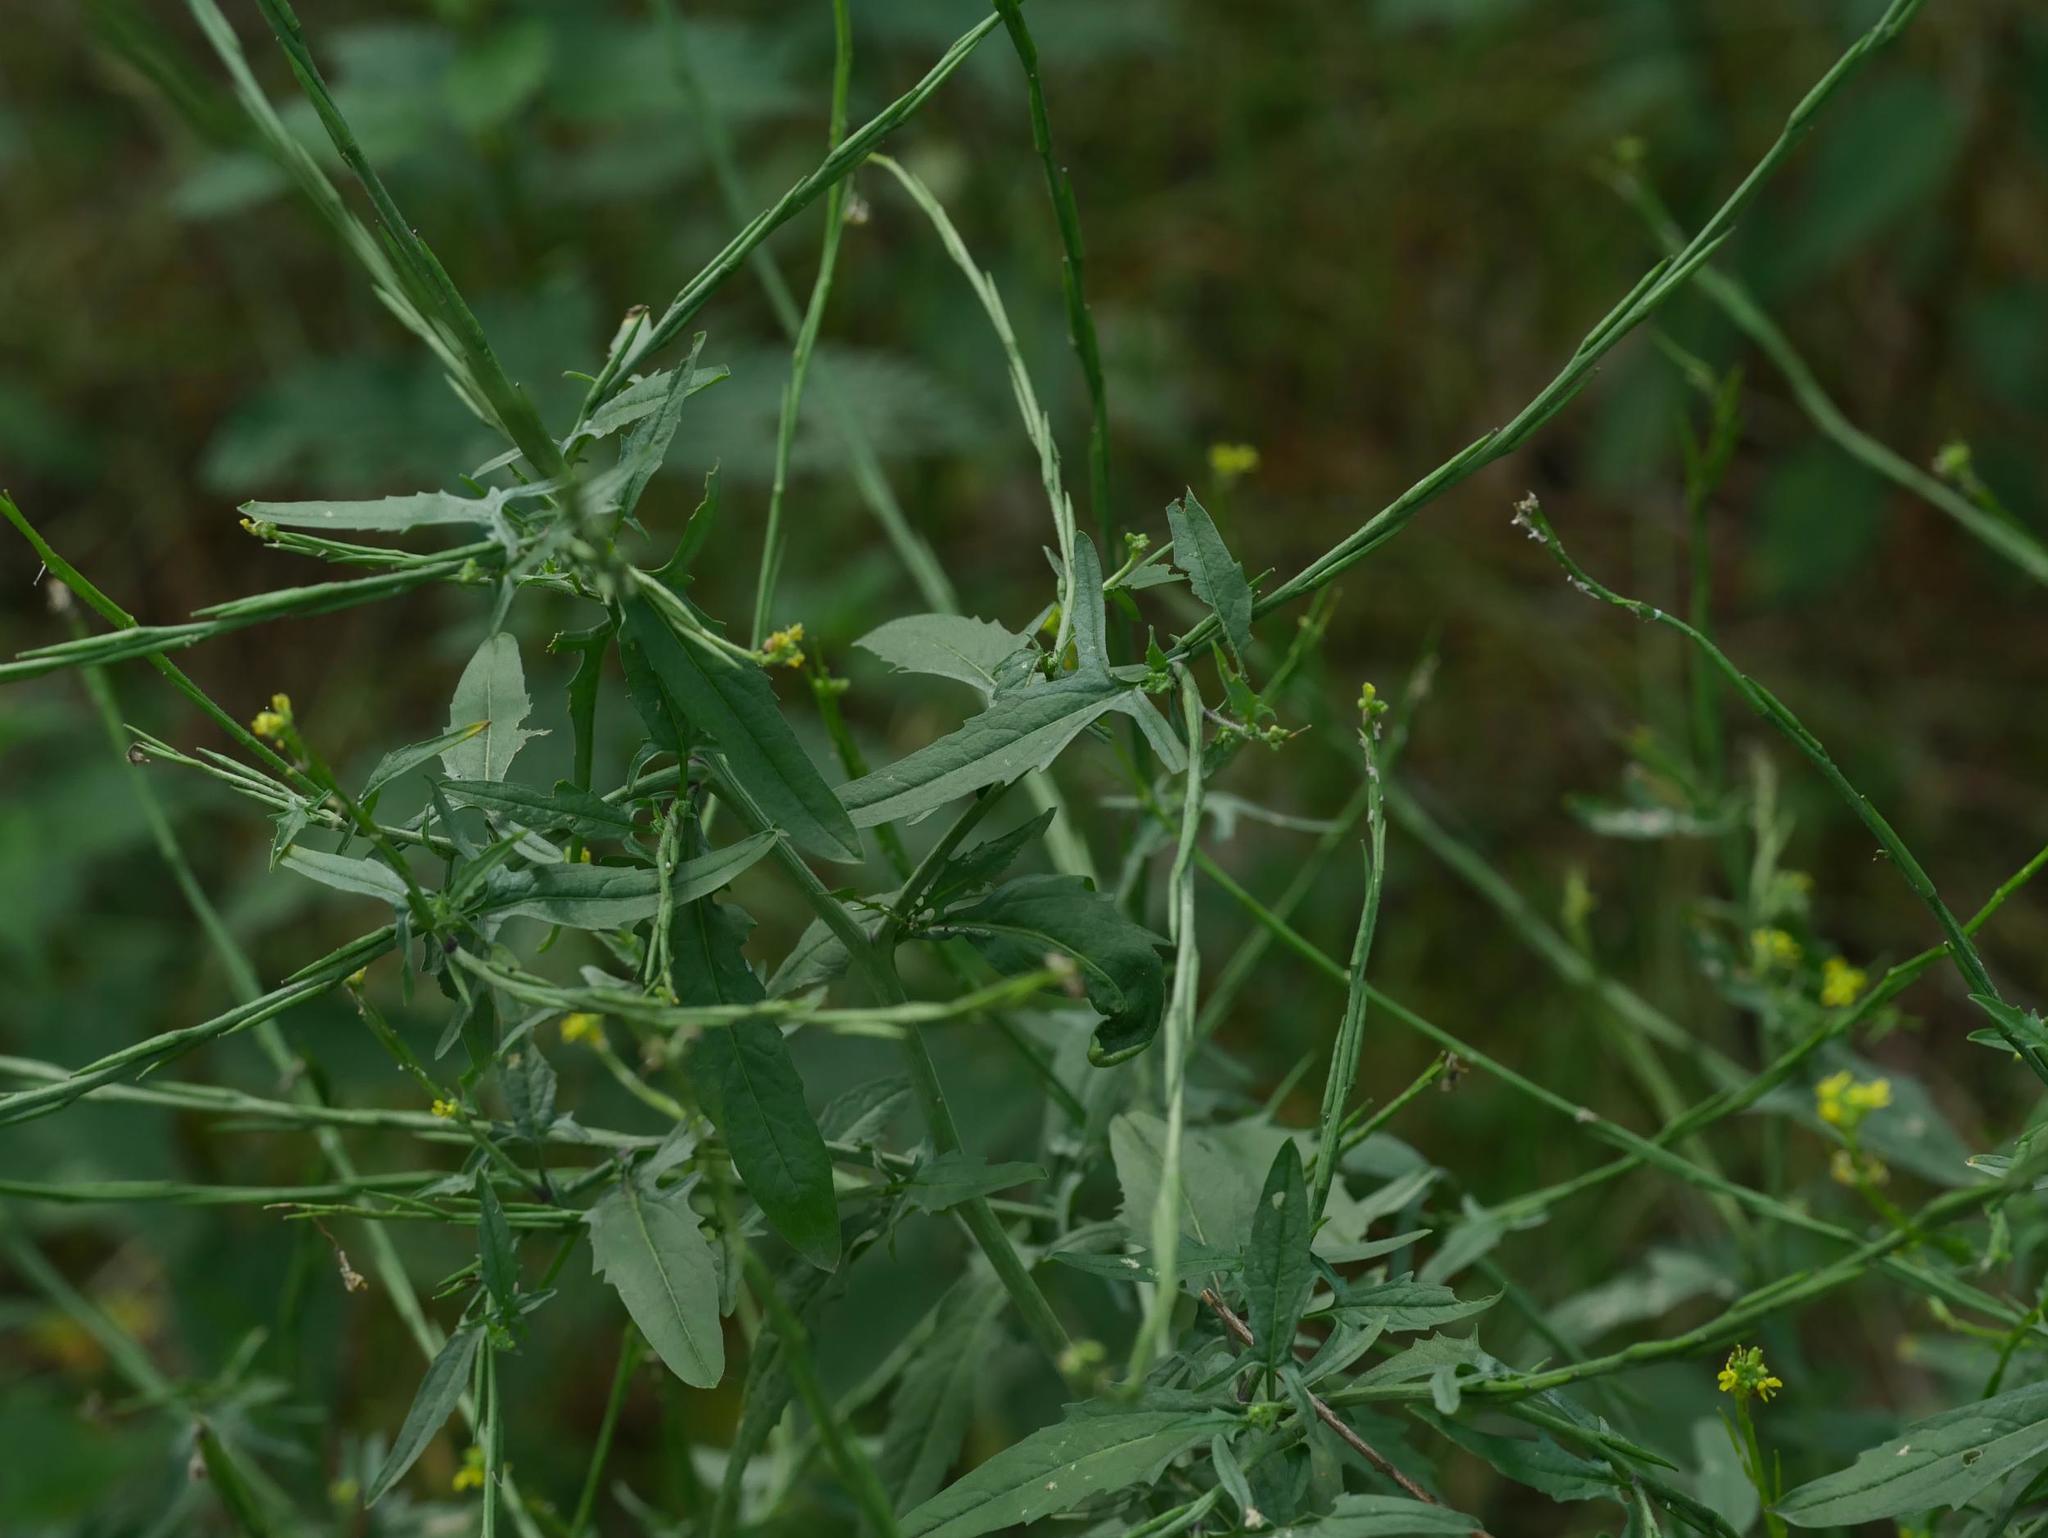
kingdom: Plantae
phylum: Tracheophyta
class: Magnoliopsida
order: Brassicales
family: Brassicaceae
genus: Sisymbrium
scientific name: Sisymbrium officinale
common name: Hedge mustard
